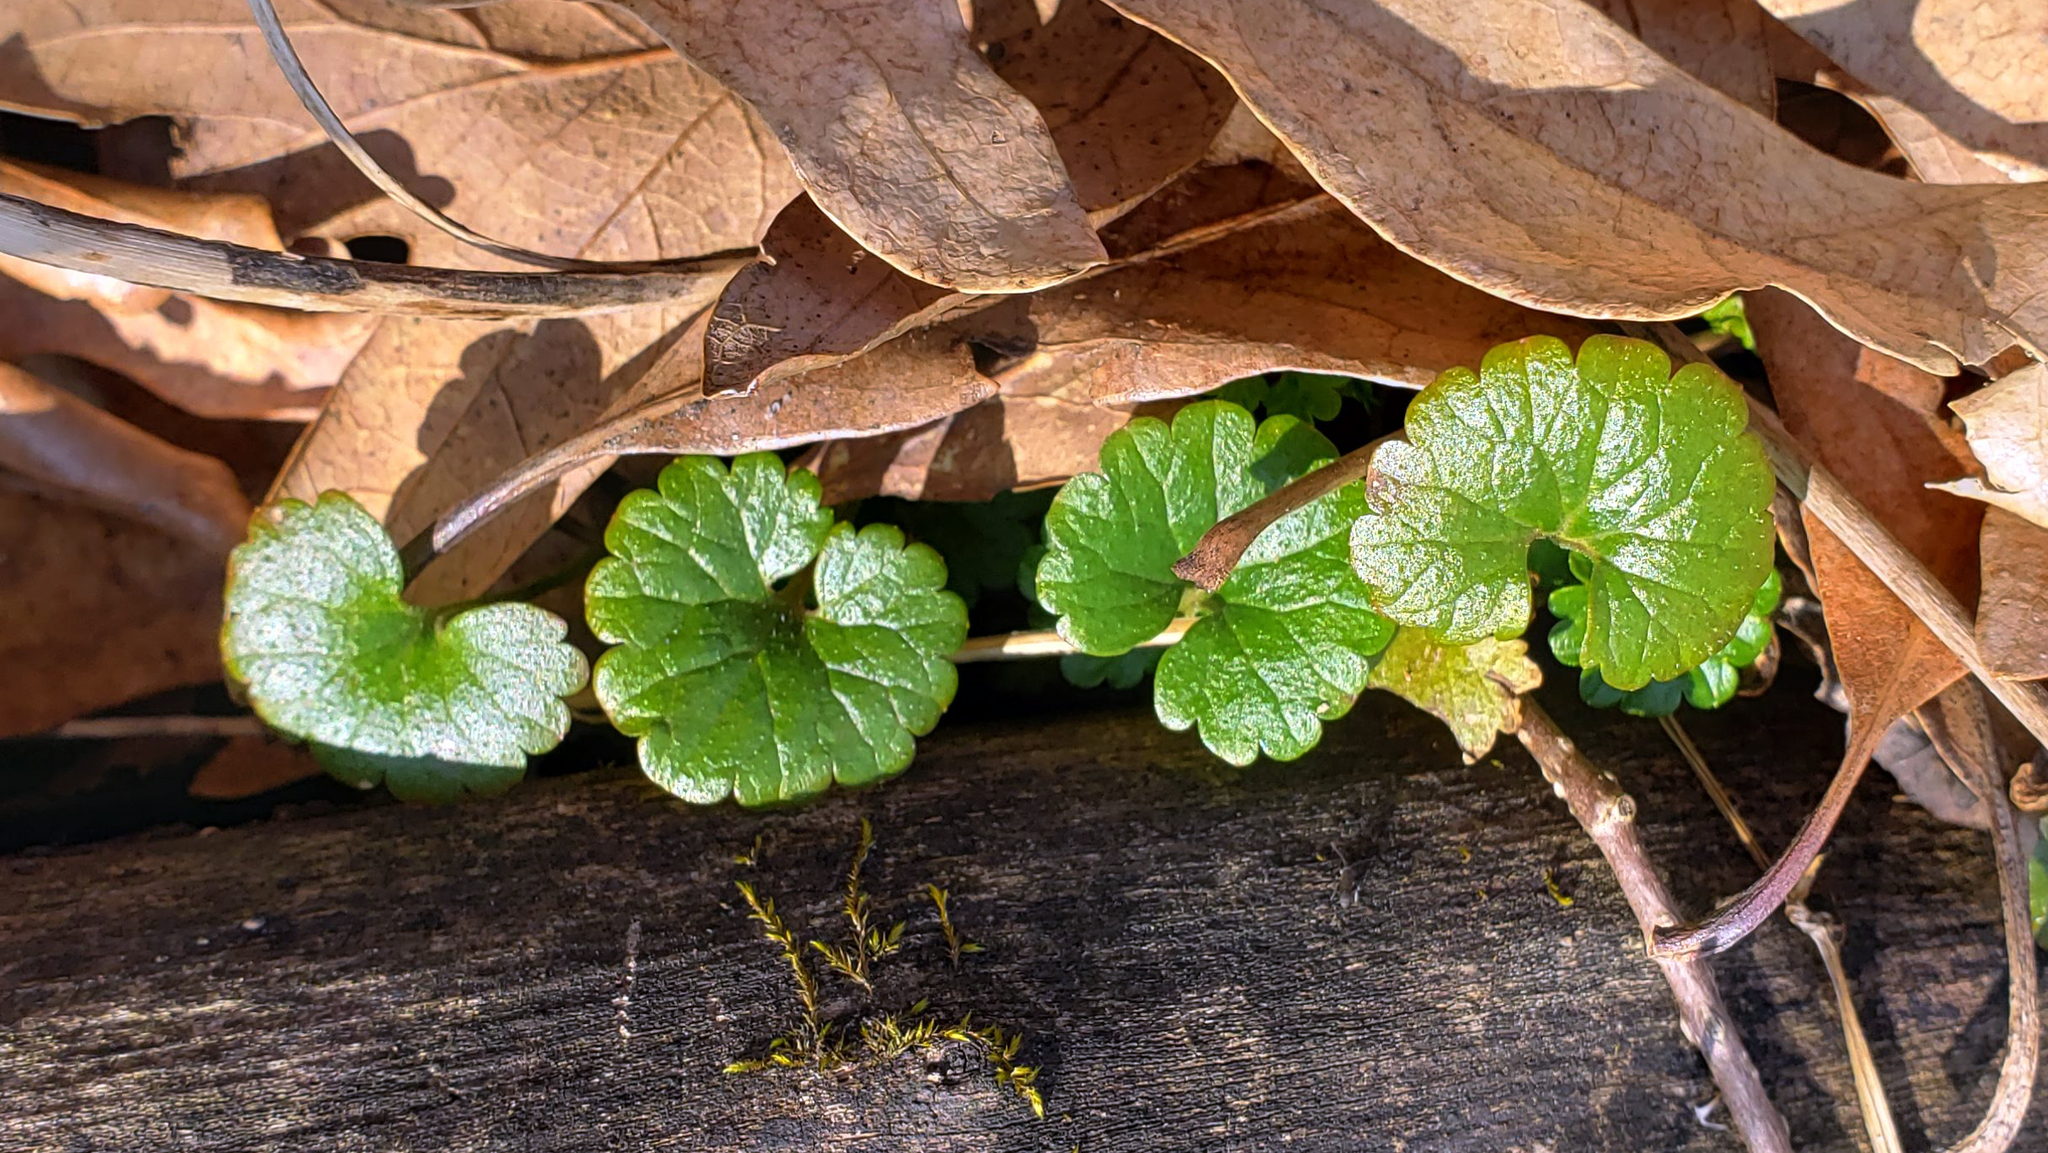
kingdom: Plantae
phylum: Tracheophyta
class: Magnoliopsida
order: Lamiales
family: Lamiaceae
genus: Glechoma
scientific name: Glechoma hederacea
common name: Ground ivy
